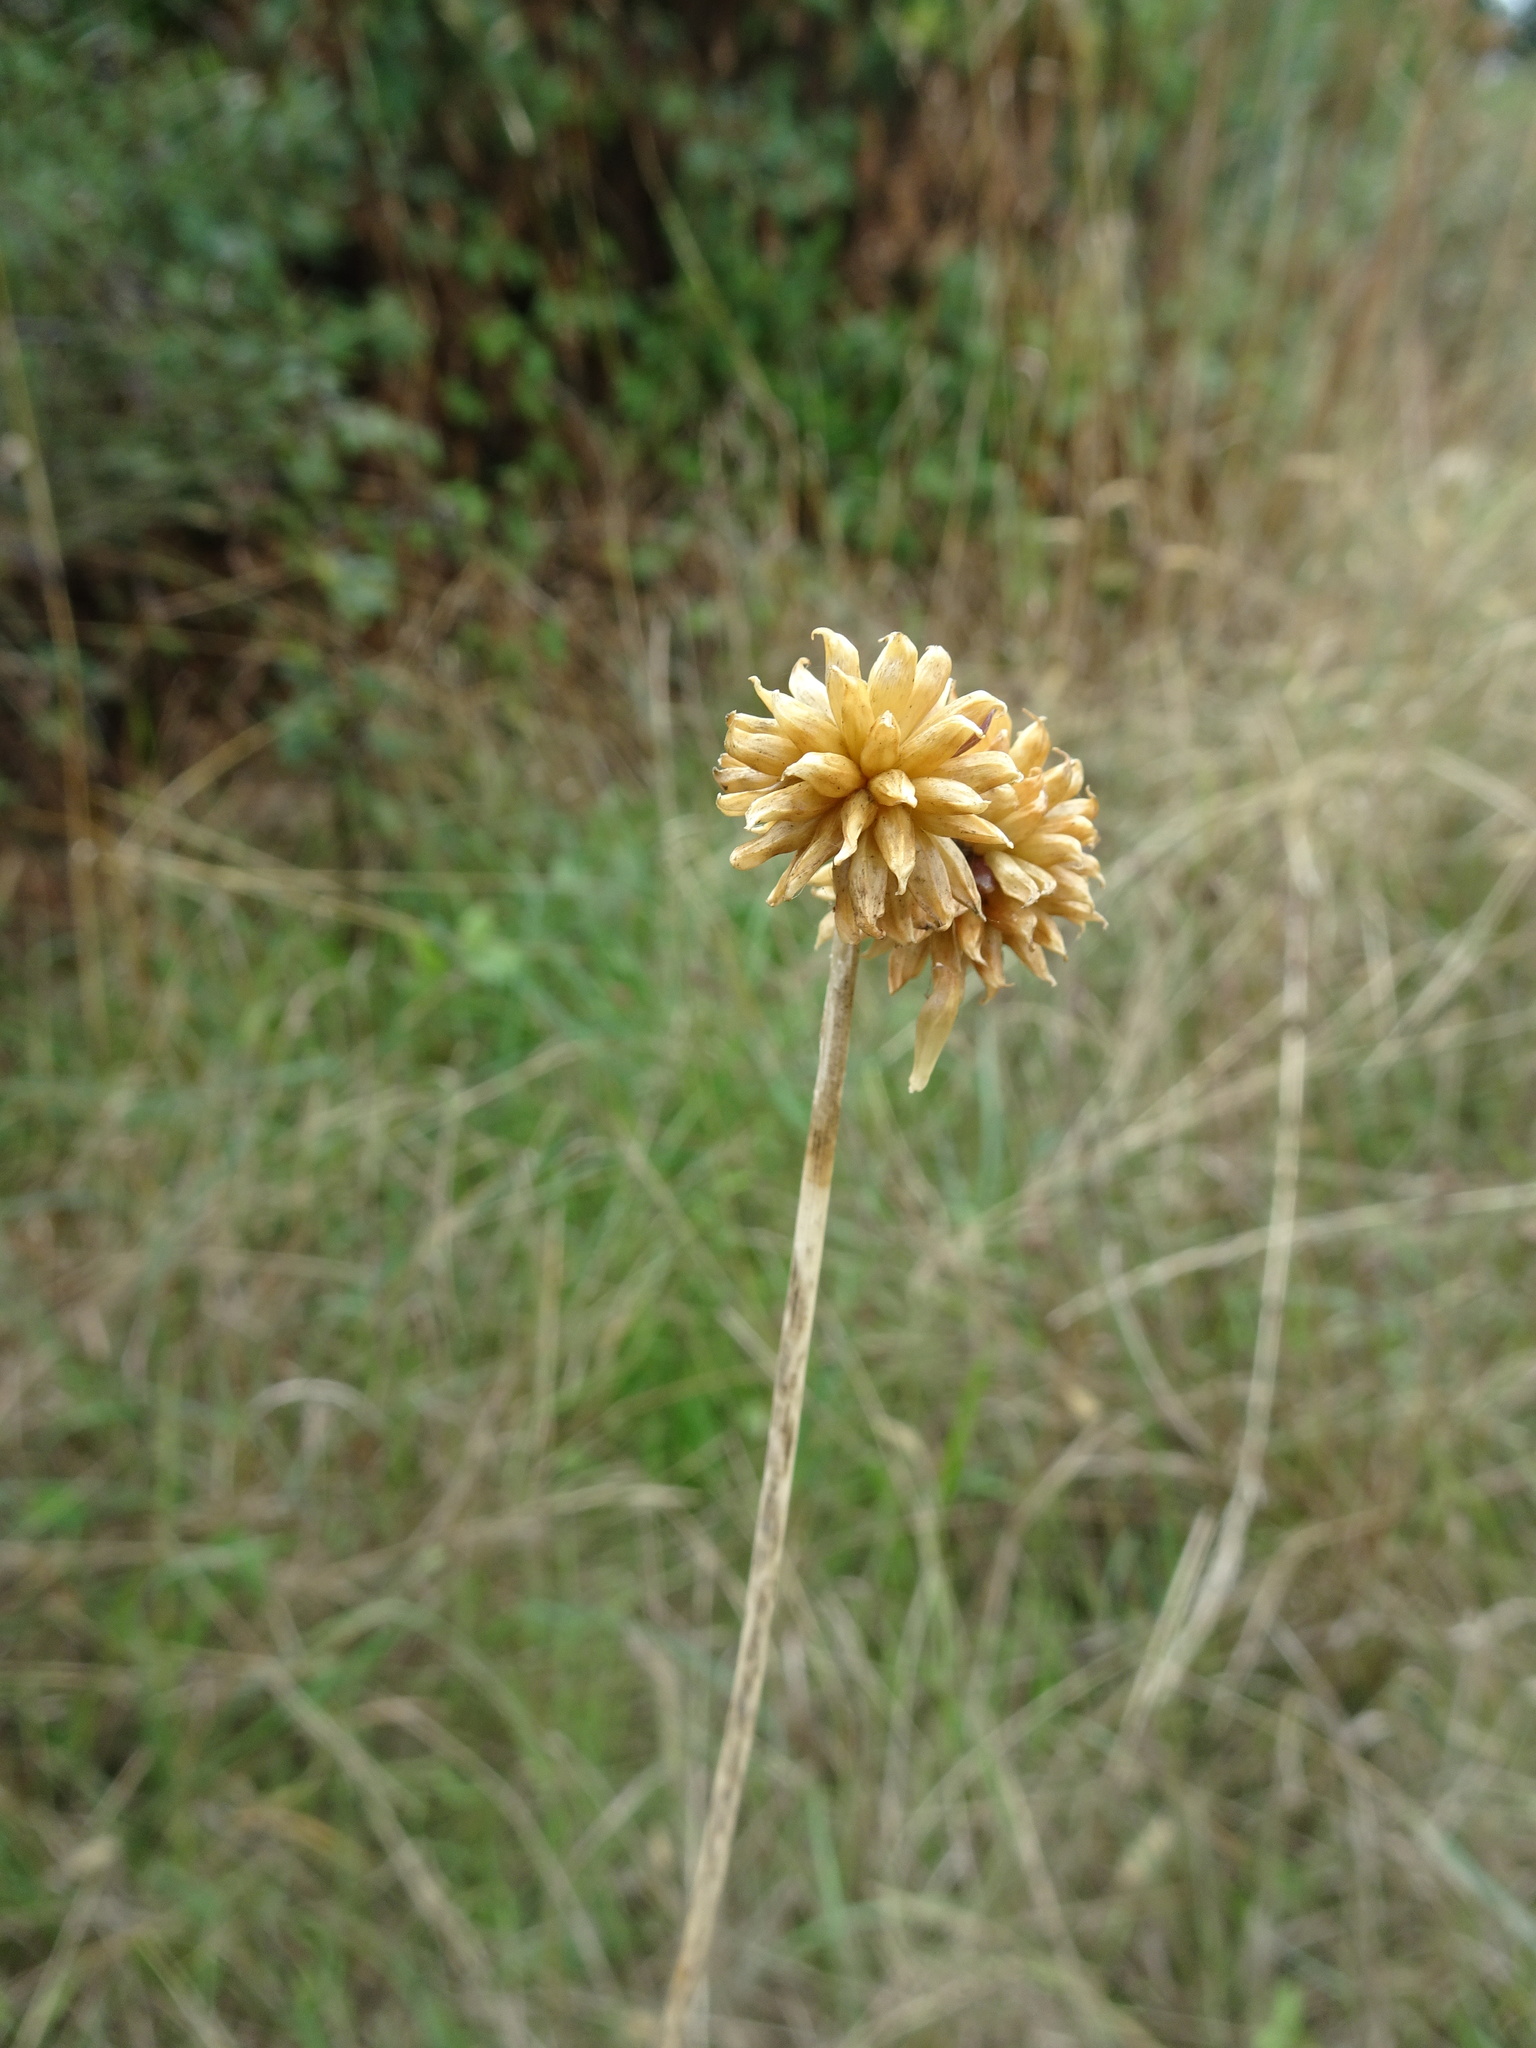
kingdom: Plantae
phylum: Tracheophyta
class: Liliopsida
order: Asparagales
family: Amaryllidaceae
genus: Allium
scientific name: Allium vineale
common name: Crow garlic
